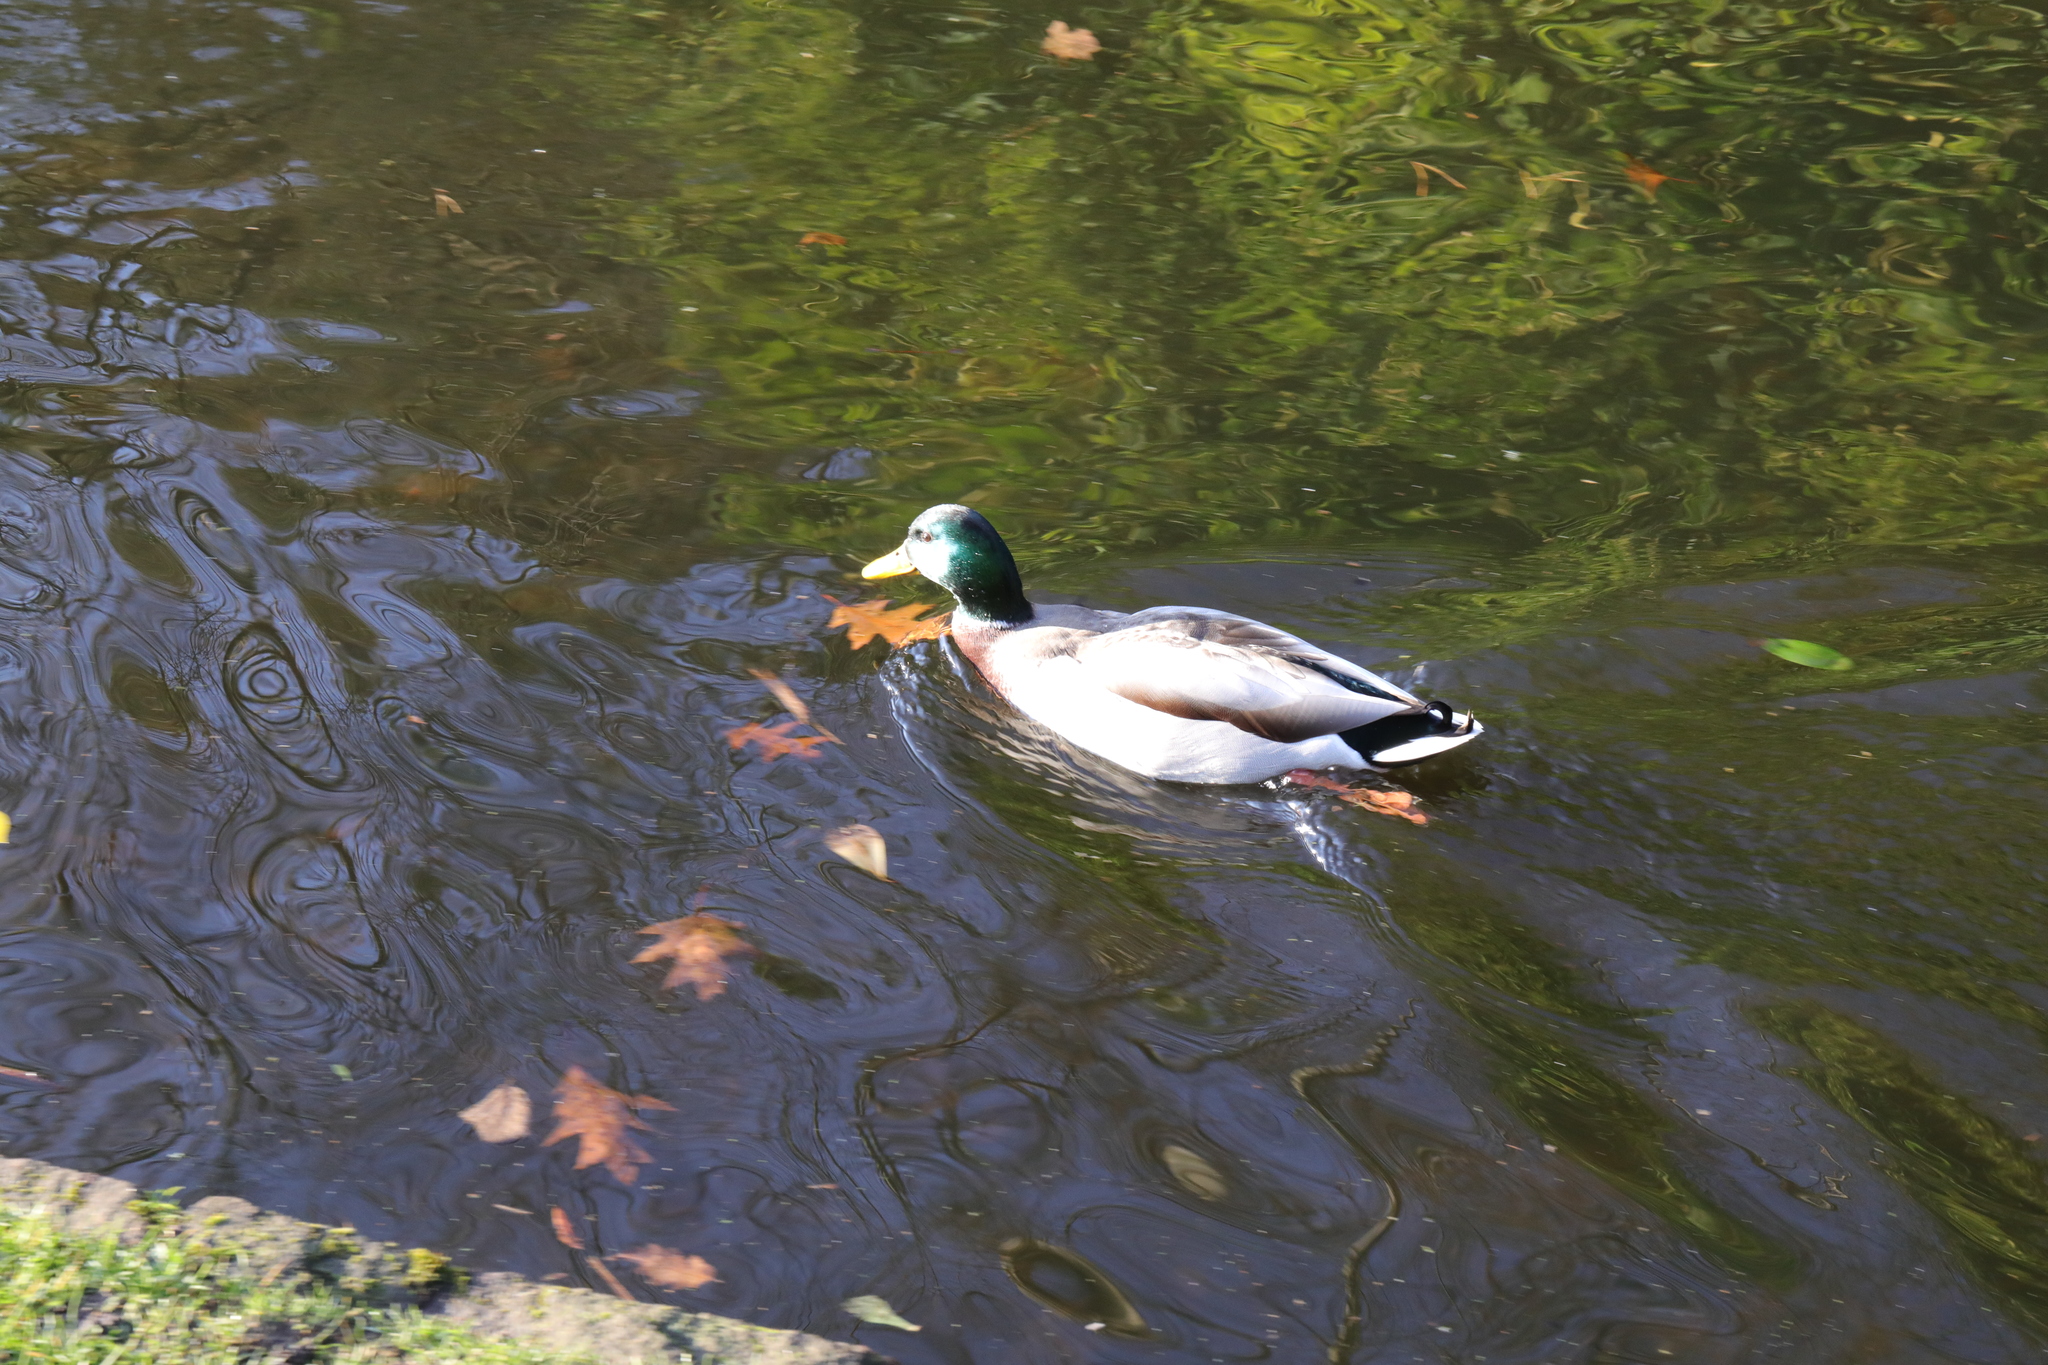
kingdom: Animalia
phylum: Chordata
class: Aves
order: Anseriformes
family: Anatidae
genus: Anas
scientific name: Anas platyrhynchos
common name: Mallard
